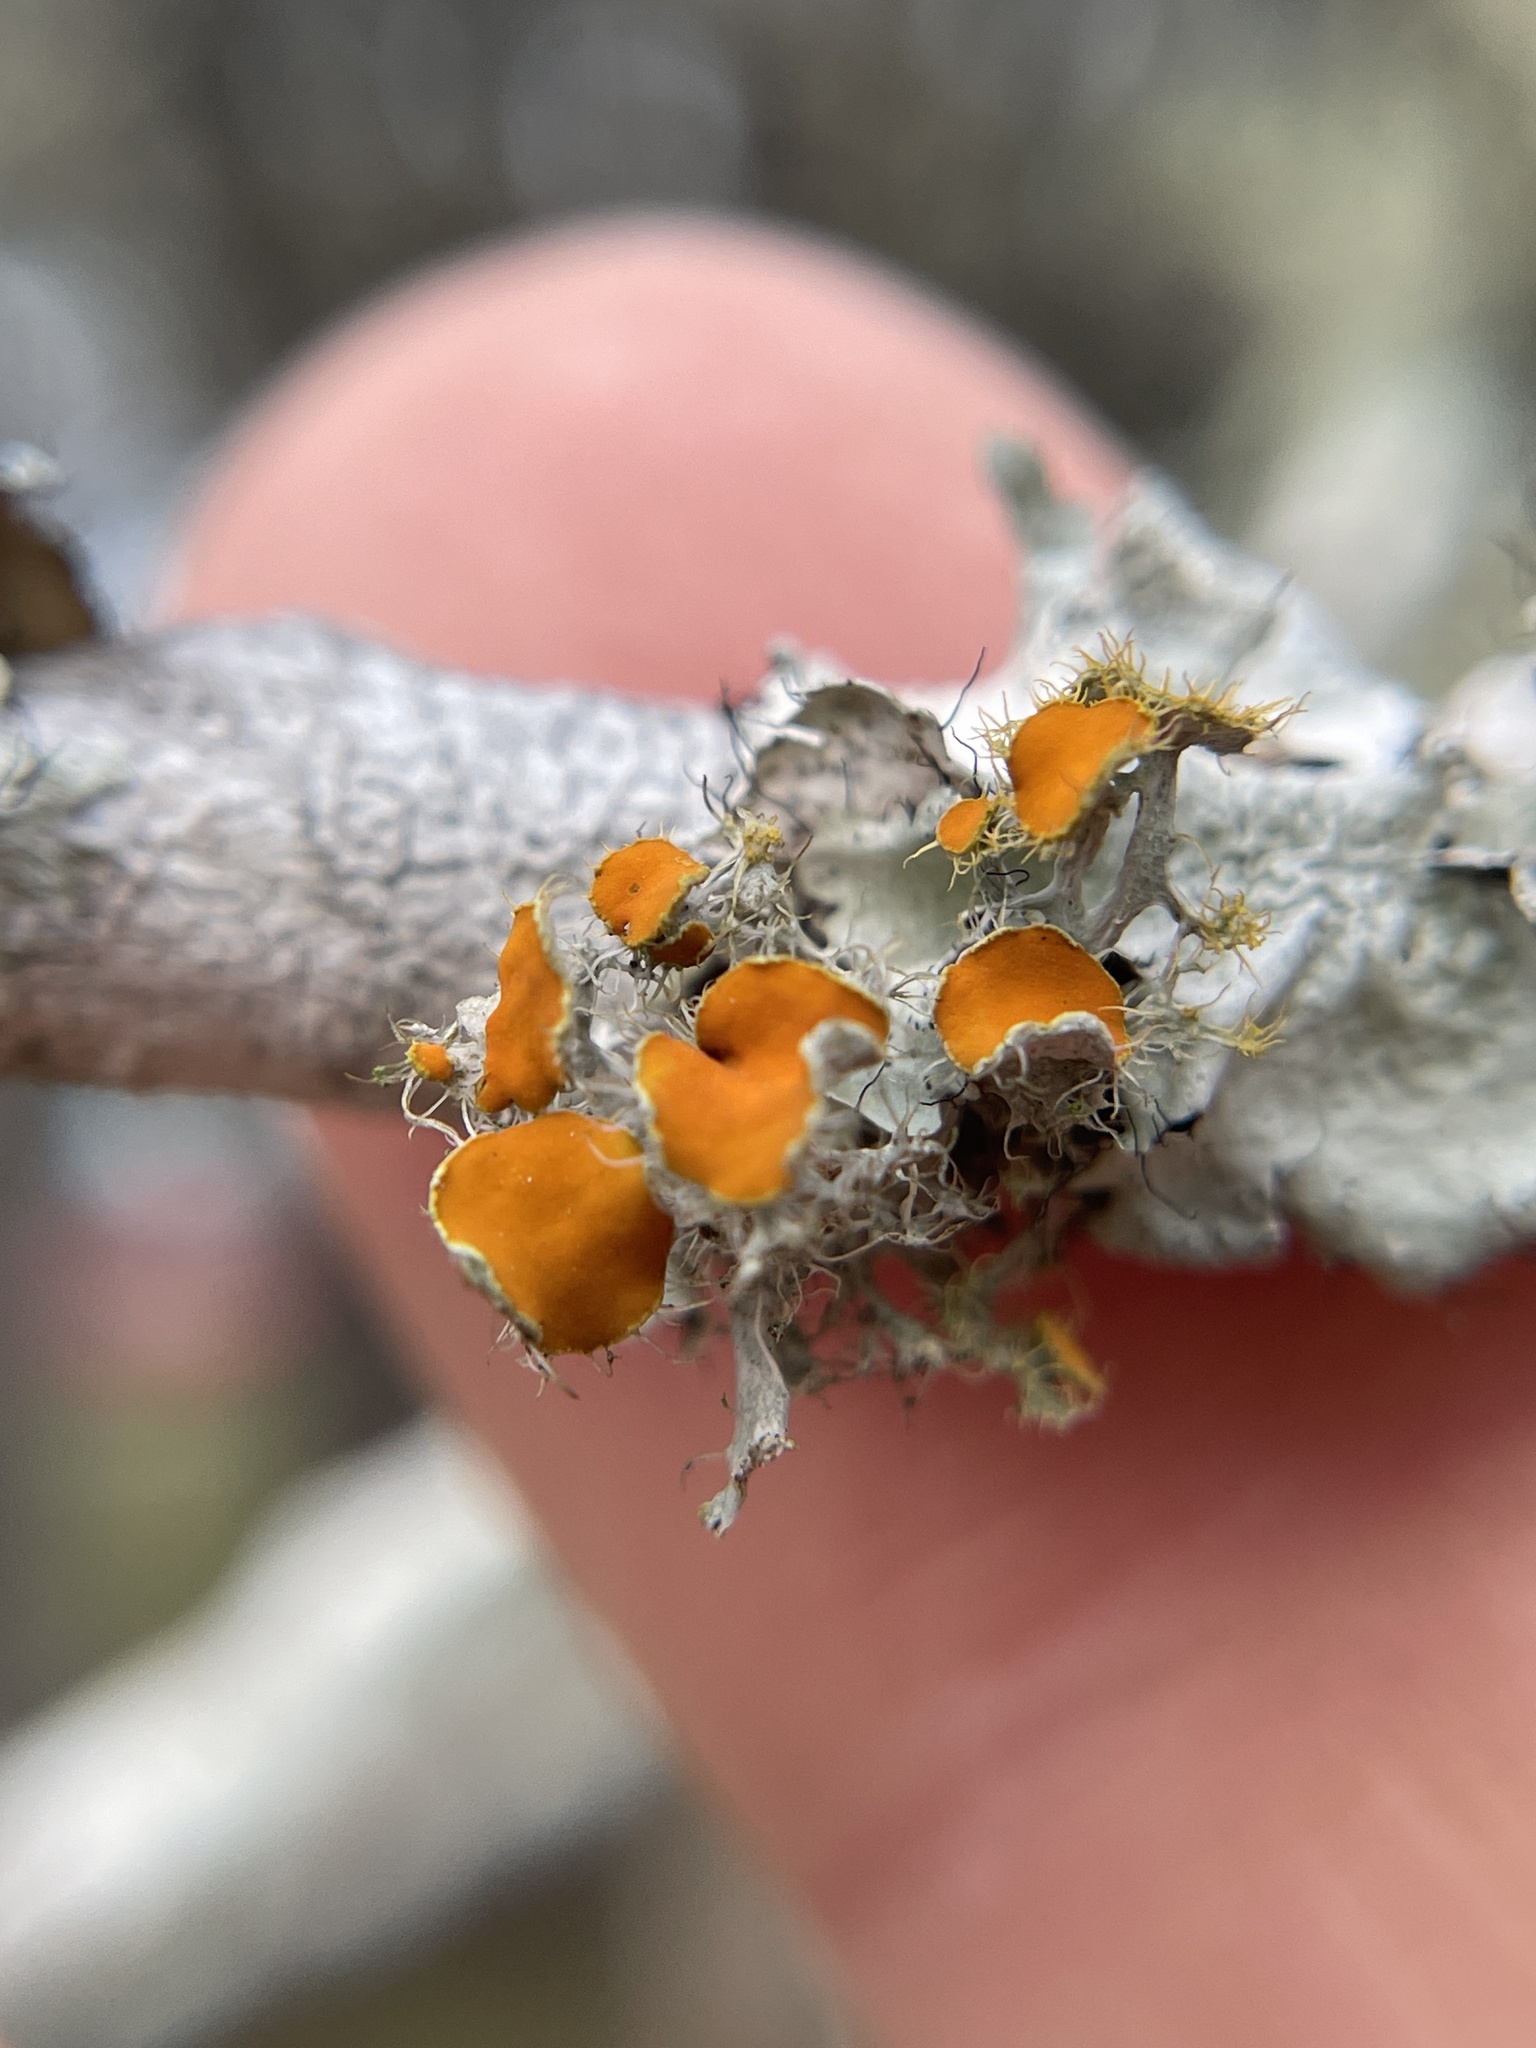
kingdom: Fungi
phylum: Ascomycota
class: Lecanoromycetes
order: Teloschistales
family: Teloschistaceae
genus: Niorma
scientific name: Niorma chrysophthalma
